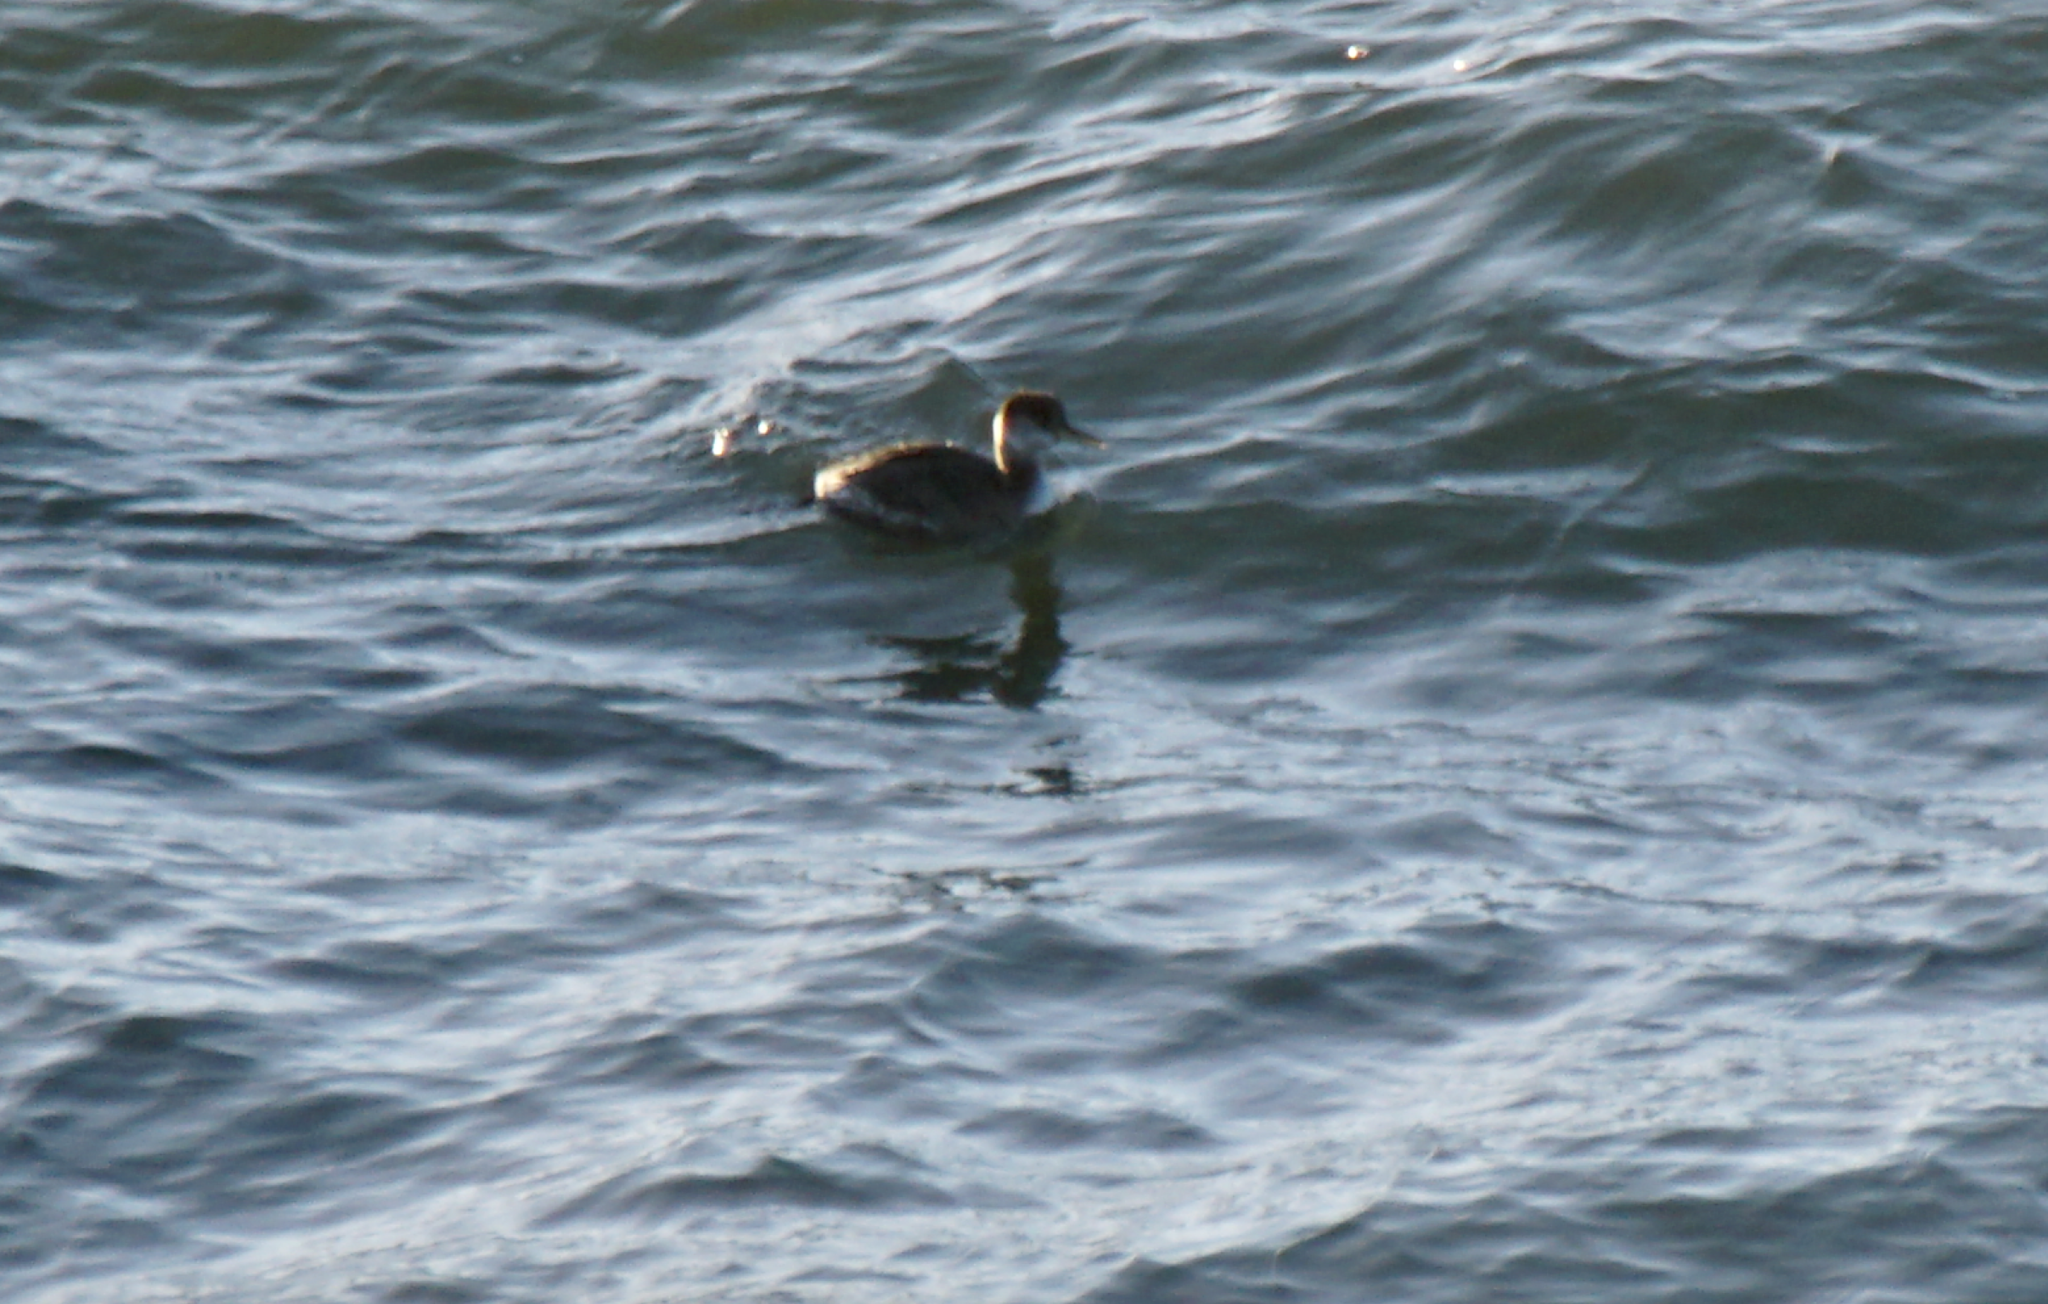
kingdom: Animalia
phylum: Chordata
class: Aves
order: Podicipediformes
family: Podicipedidae
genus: Podiceps
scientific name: Podiceps grisegena
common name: Red-necked grebe
